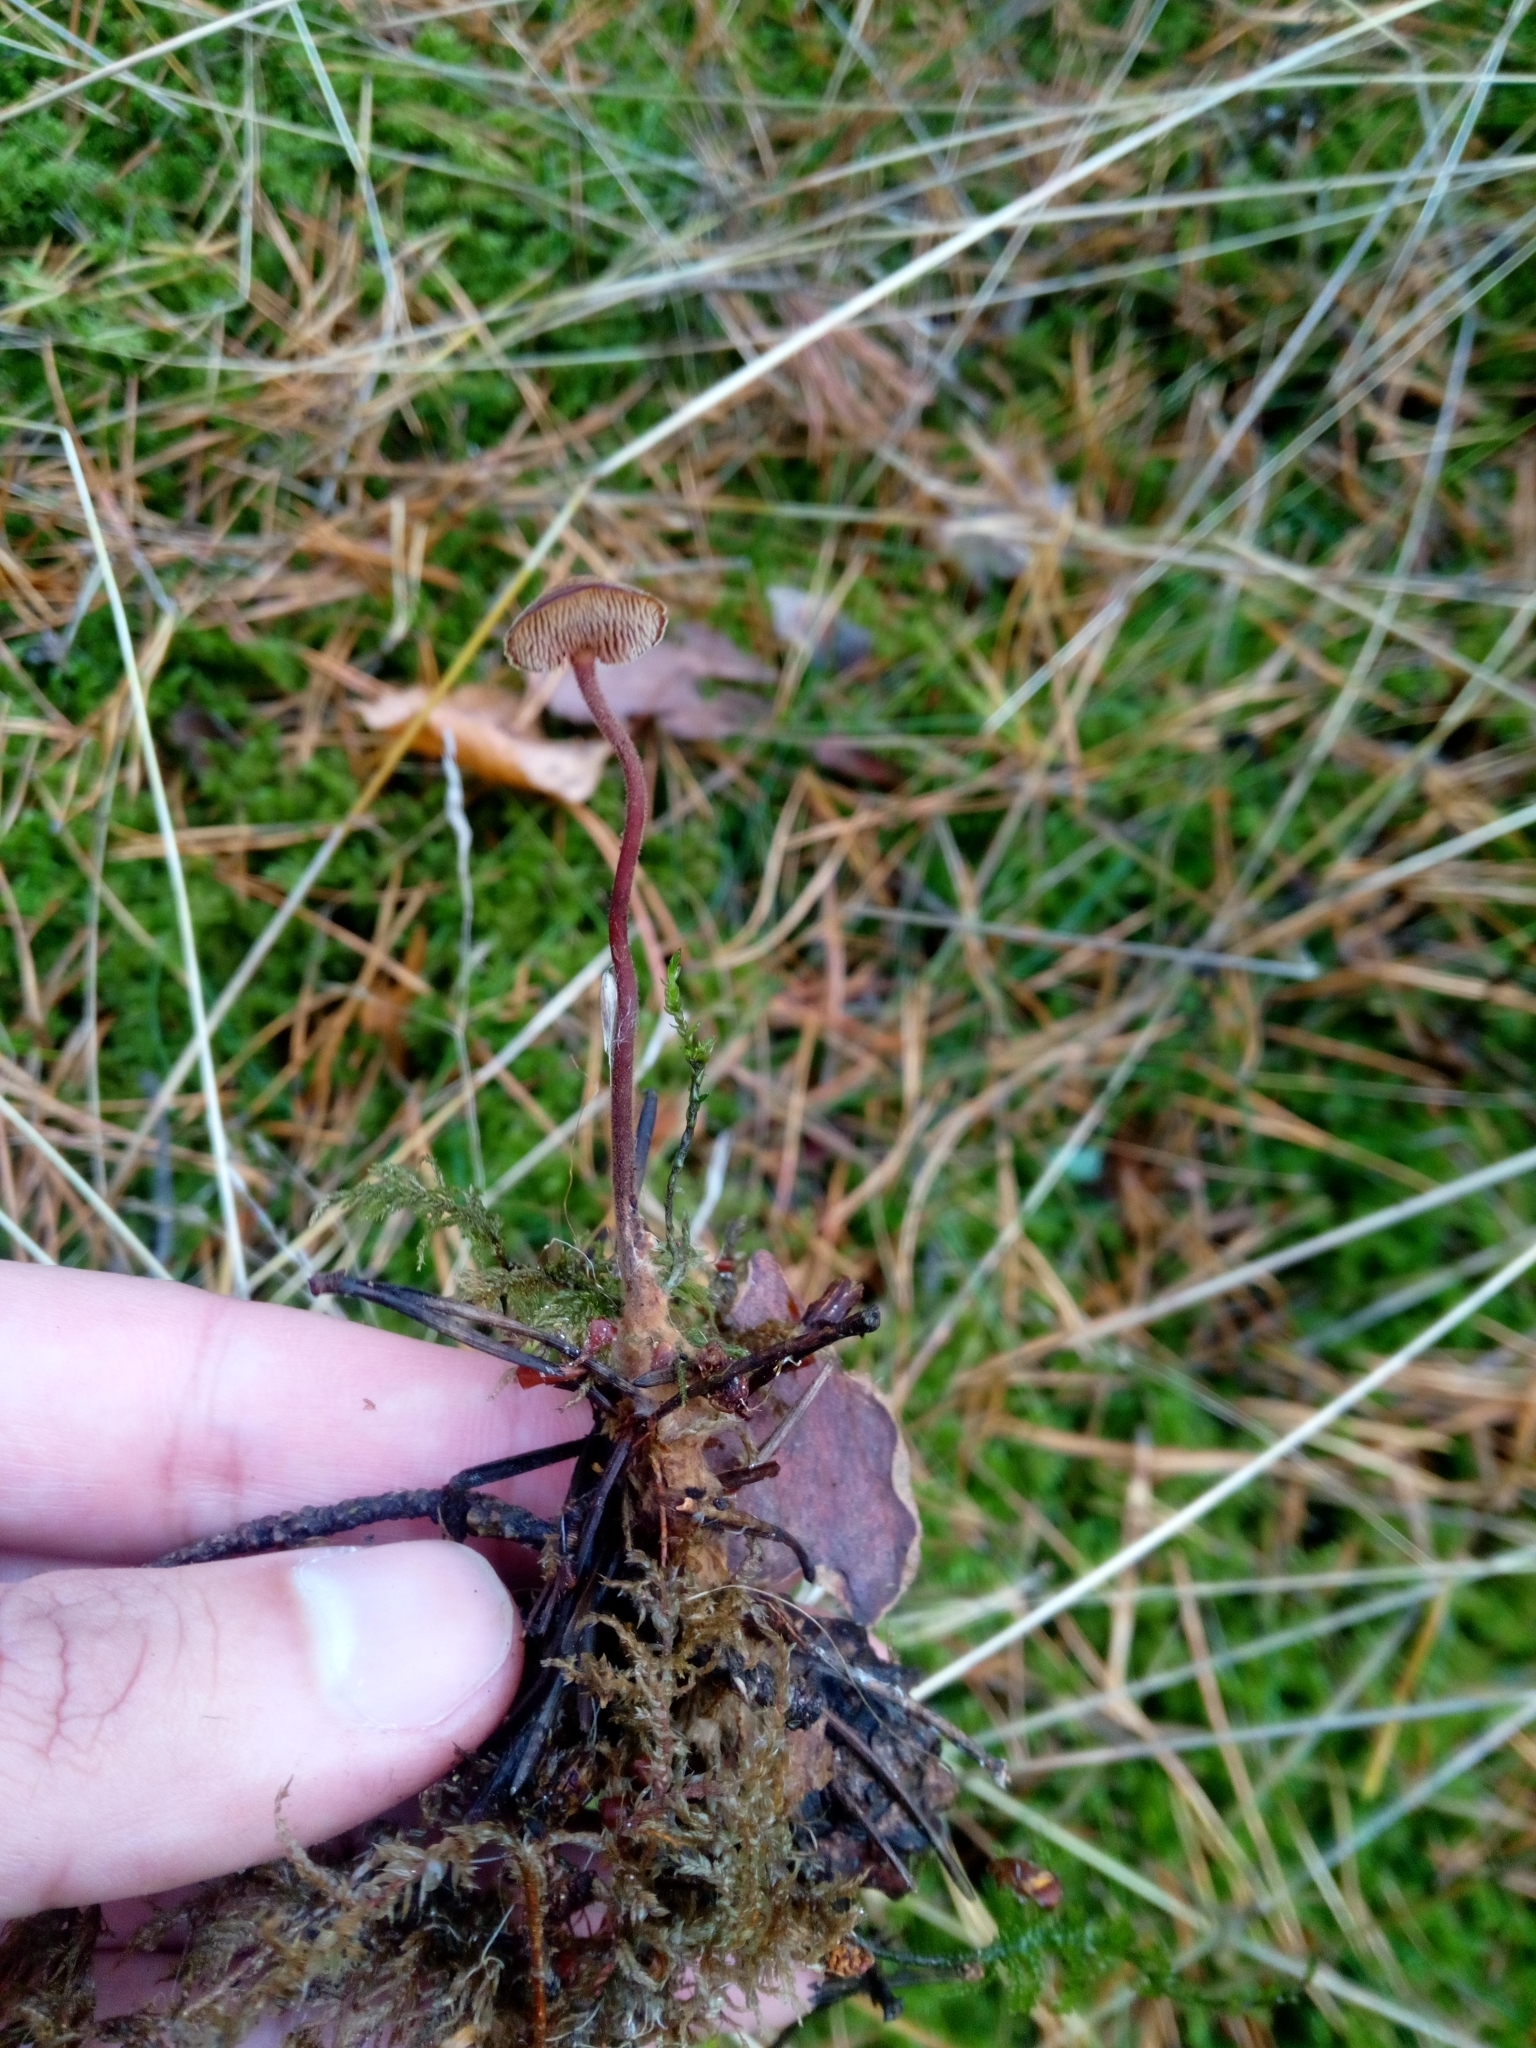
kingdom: Fungi
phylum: Basidiomycota
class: Agaricomycetes
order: Russulales
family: Auriscalpiaceae
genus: Auriscalpium
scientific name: Auriscalpium vulgare
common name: Earpick fungus
